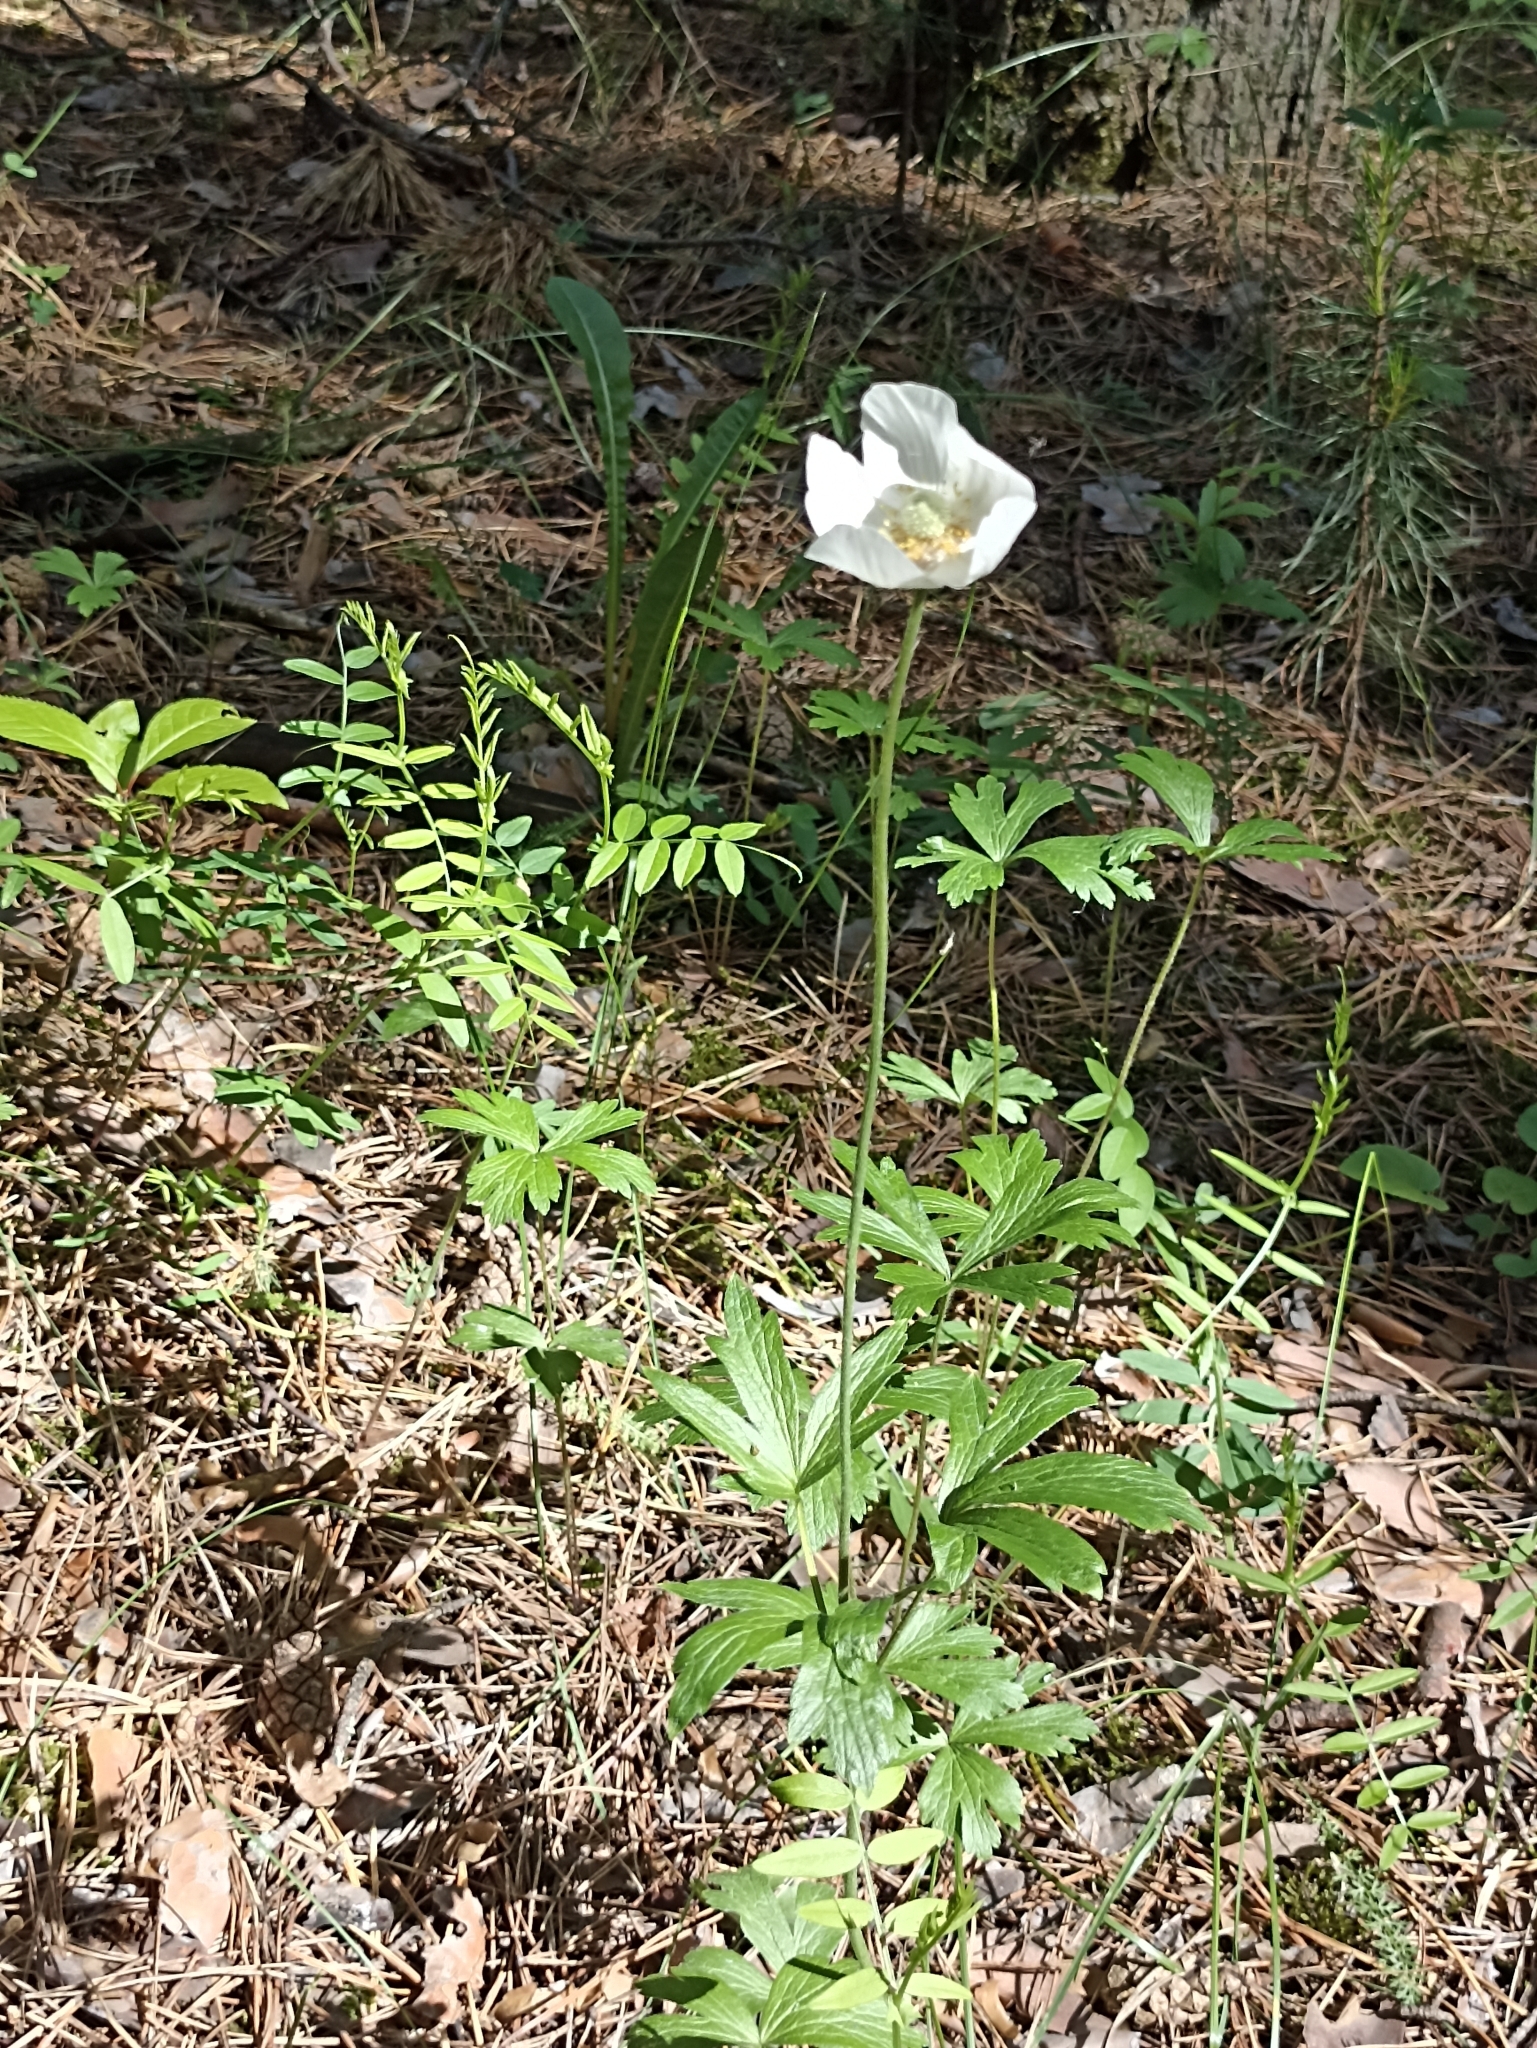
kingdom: Plantae
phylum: Tracheophyta
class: Magnoliopsida
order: Ranunculales
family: Ranunculaceae
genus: Anemone
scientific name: Anemone sylvestris
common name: Snowdrop anemone
